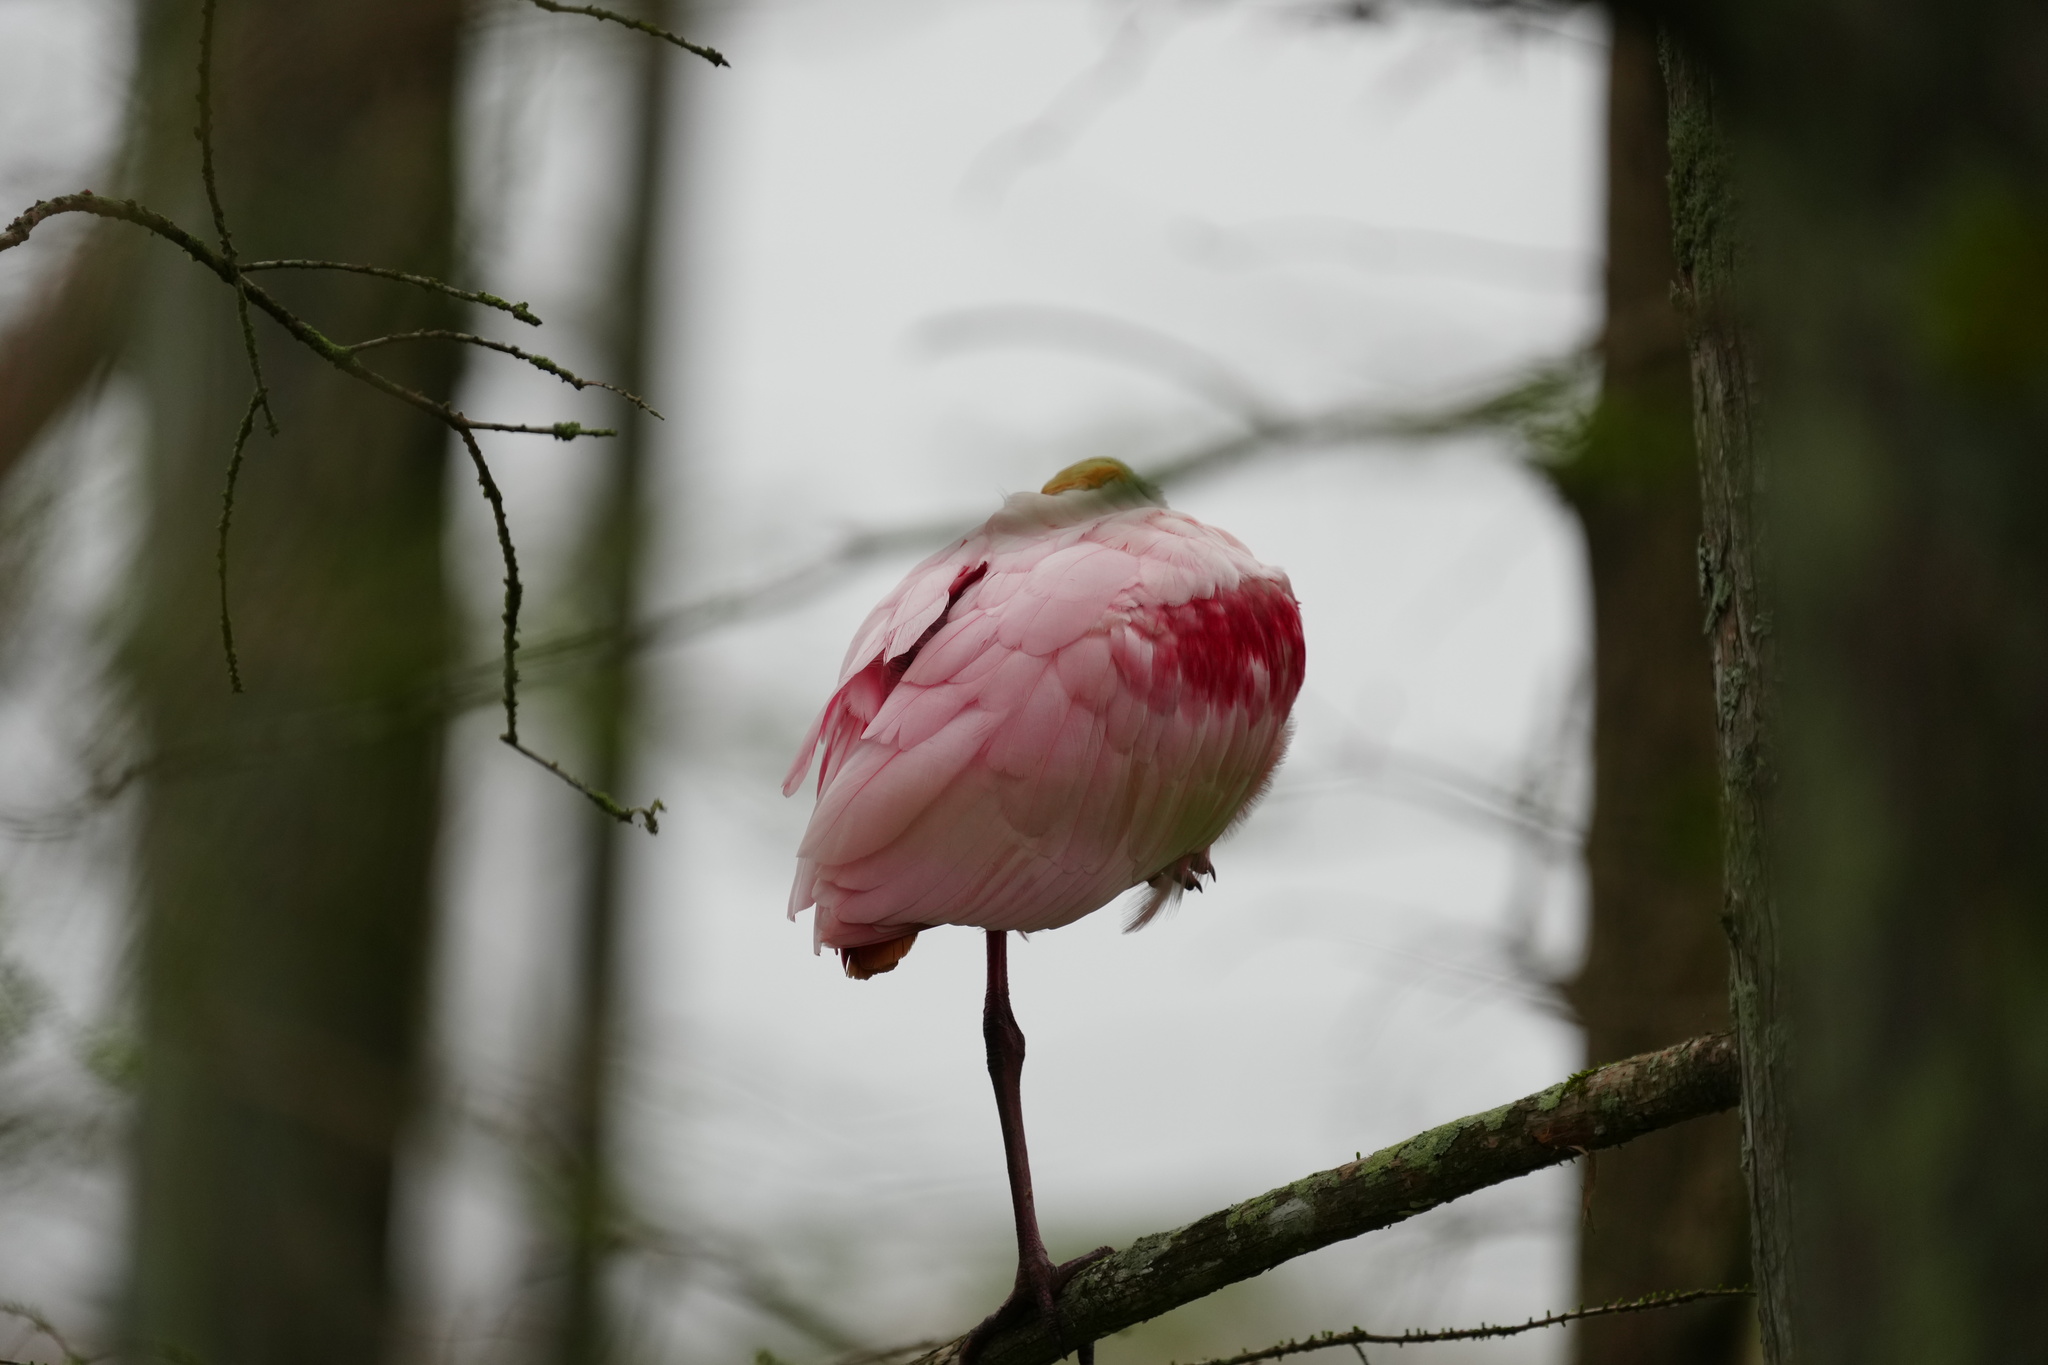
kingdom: Animalia
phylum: Chordata
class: Aves
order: Pelecaniformes
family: Threskiornithidae
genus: Platalea
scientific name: Platalea ajaja
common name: Roseate spoonbill
